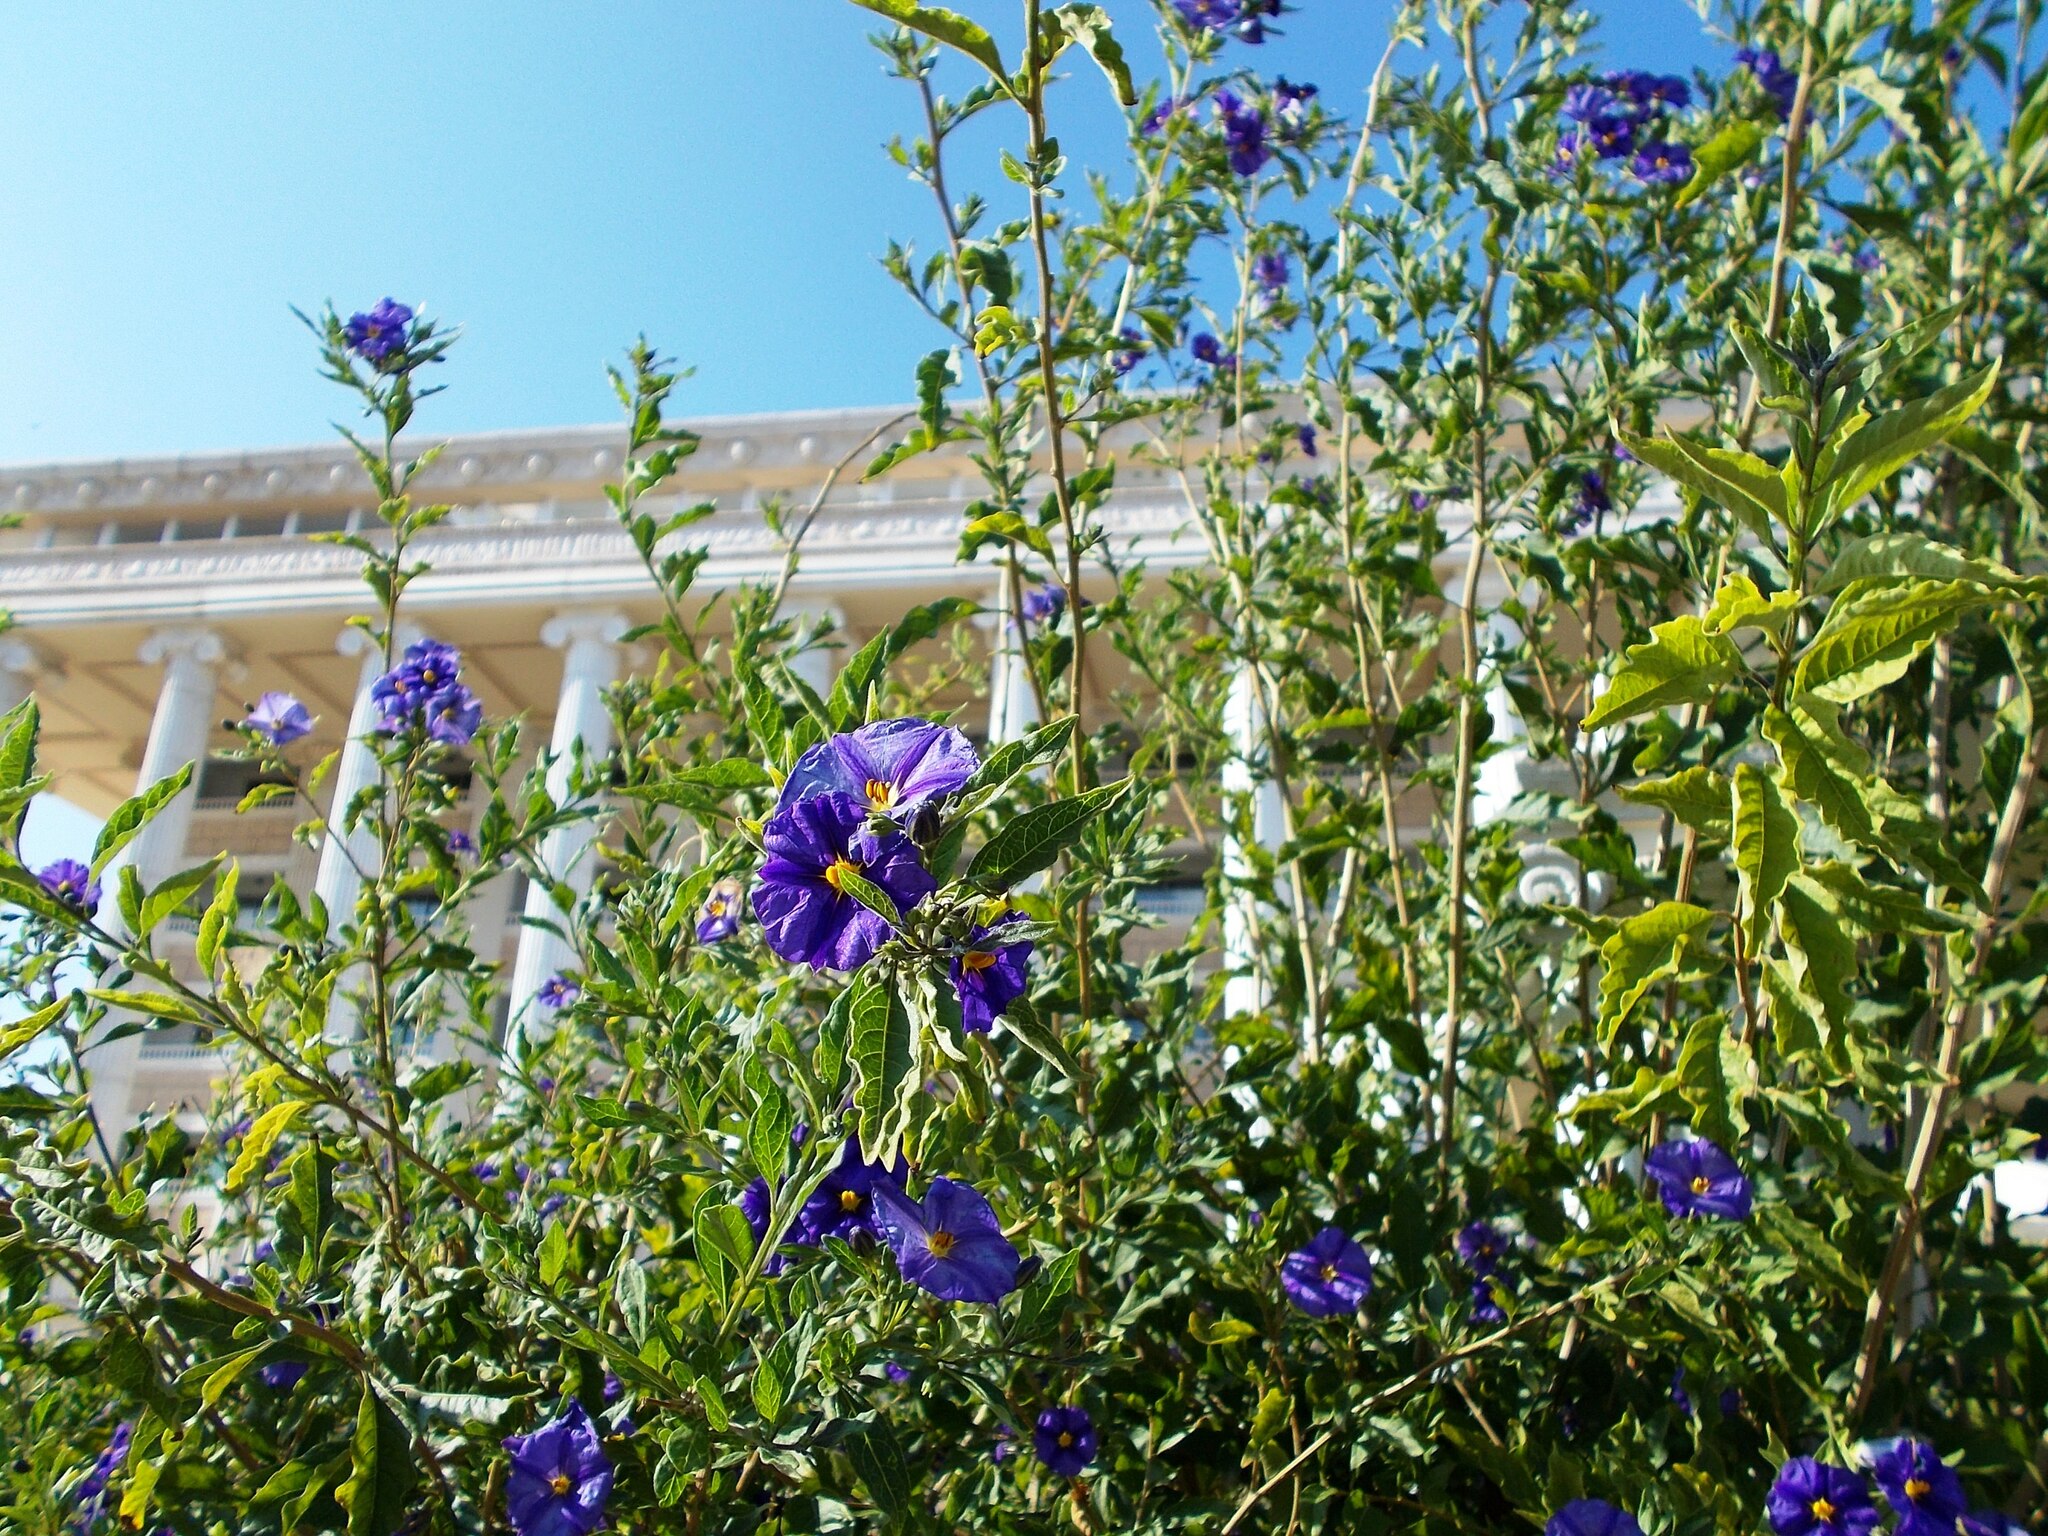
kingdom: Plantae
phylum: Tracheophyta
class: Magnoliopsida
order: Solanales
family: Solanaceae
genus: Lycianthes
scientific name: Lycianthes rantonnetii
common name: Blue potatobush
